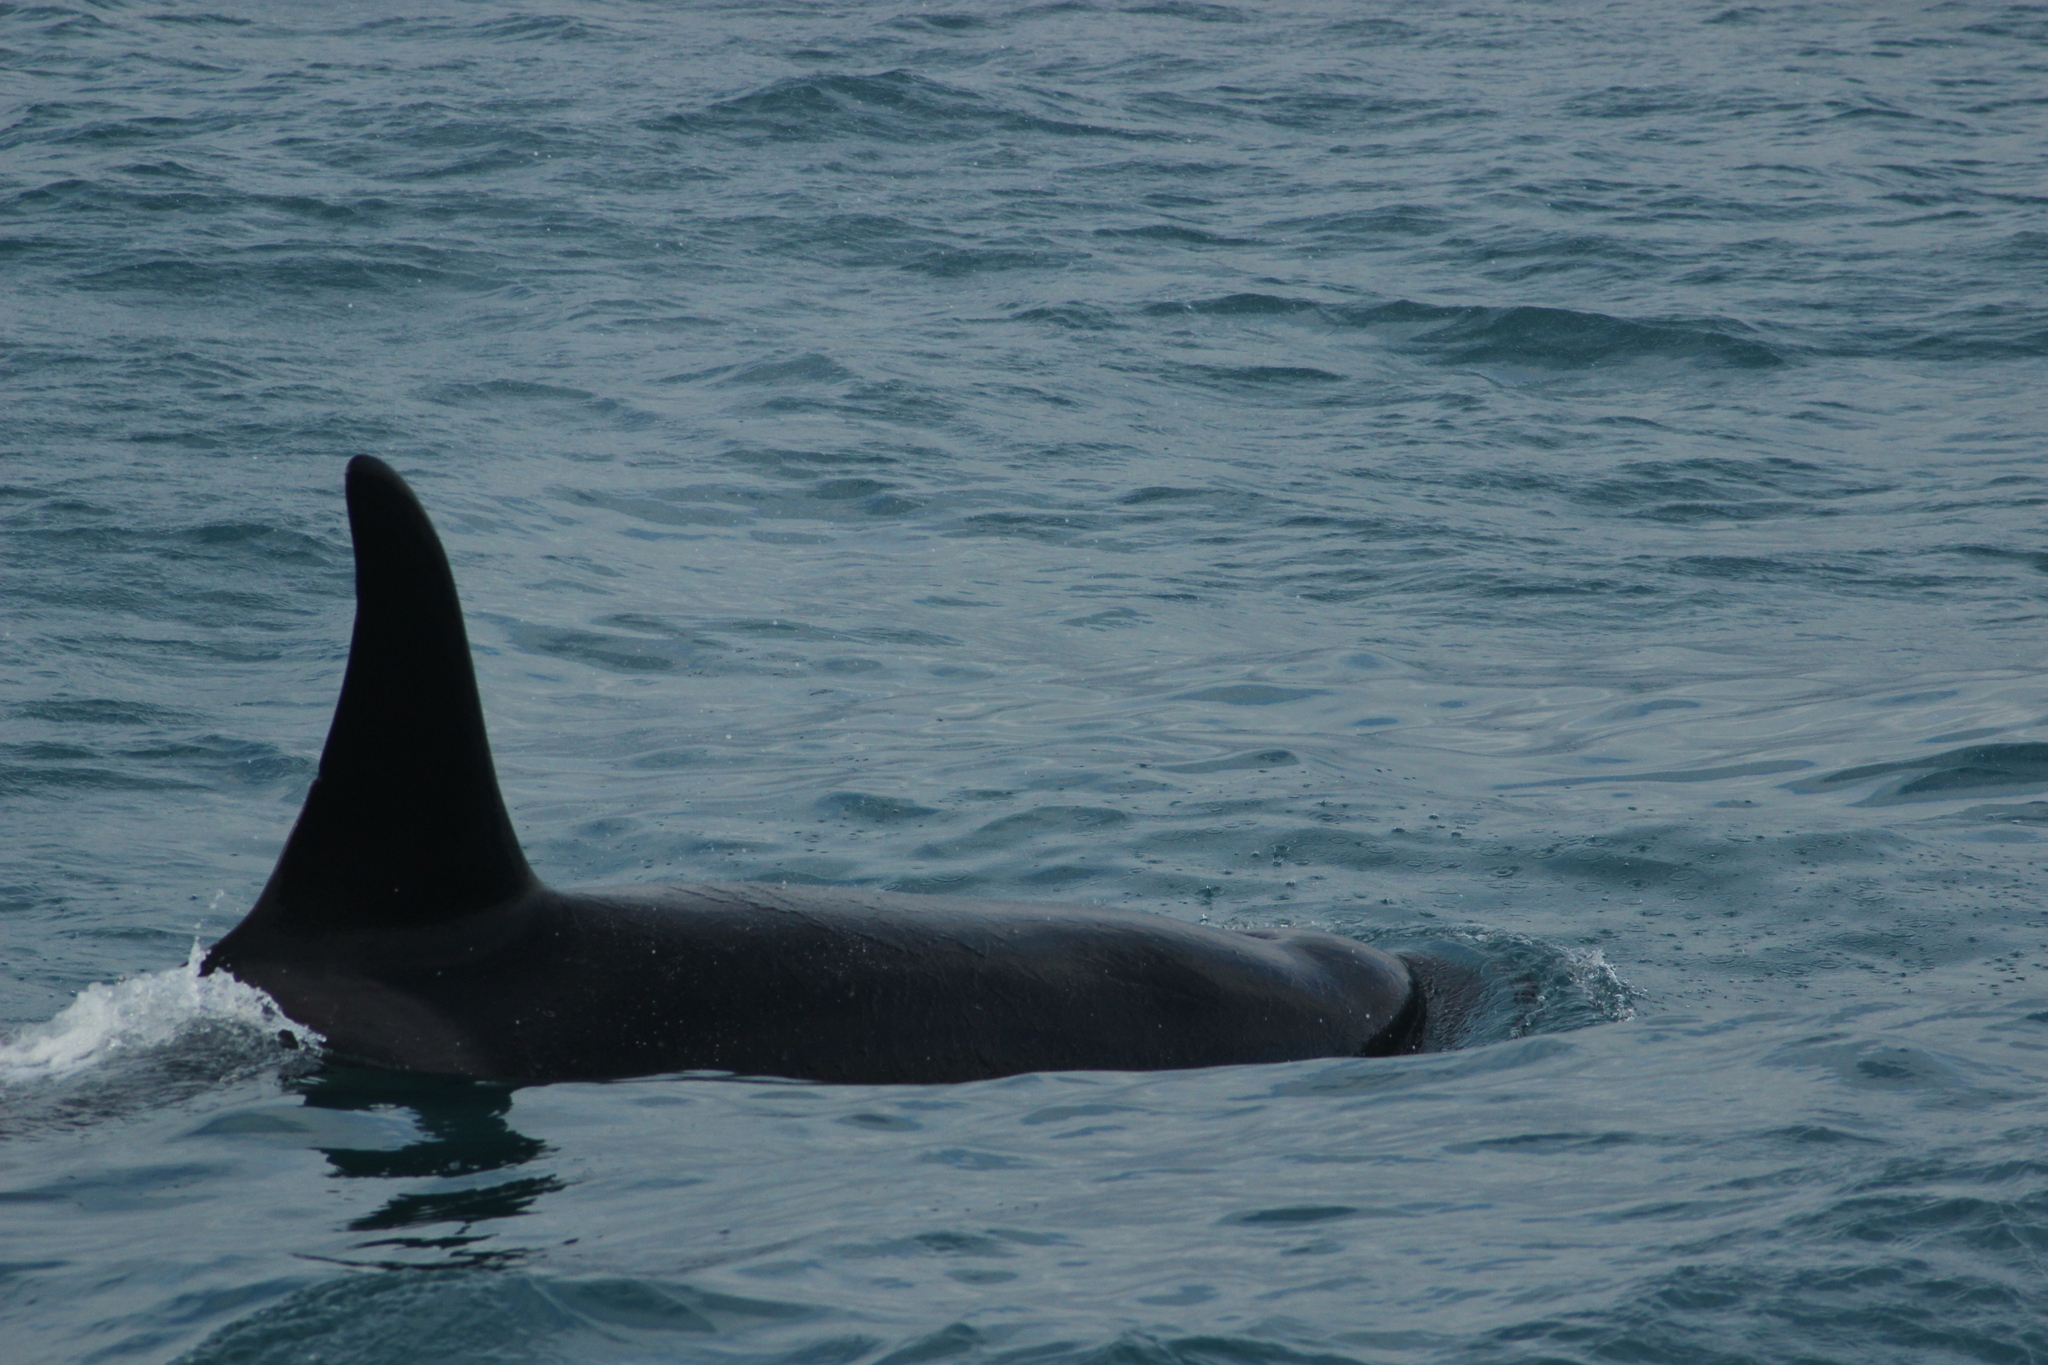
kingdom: Animalia
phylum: Chordata
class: Mammalia
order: Cetacea
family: Delphinidae
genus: Orcinus
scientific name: Orcinus orca
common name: Killer whale
